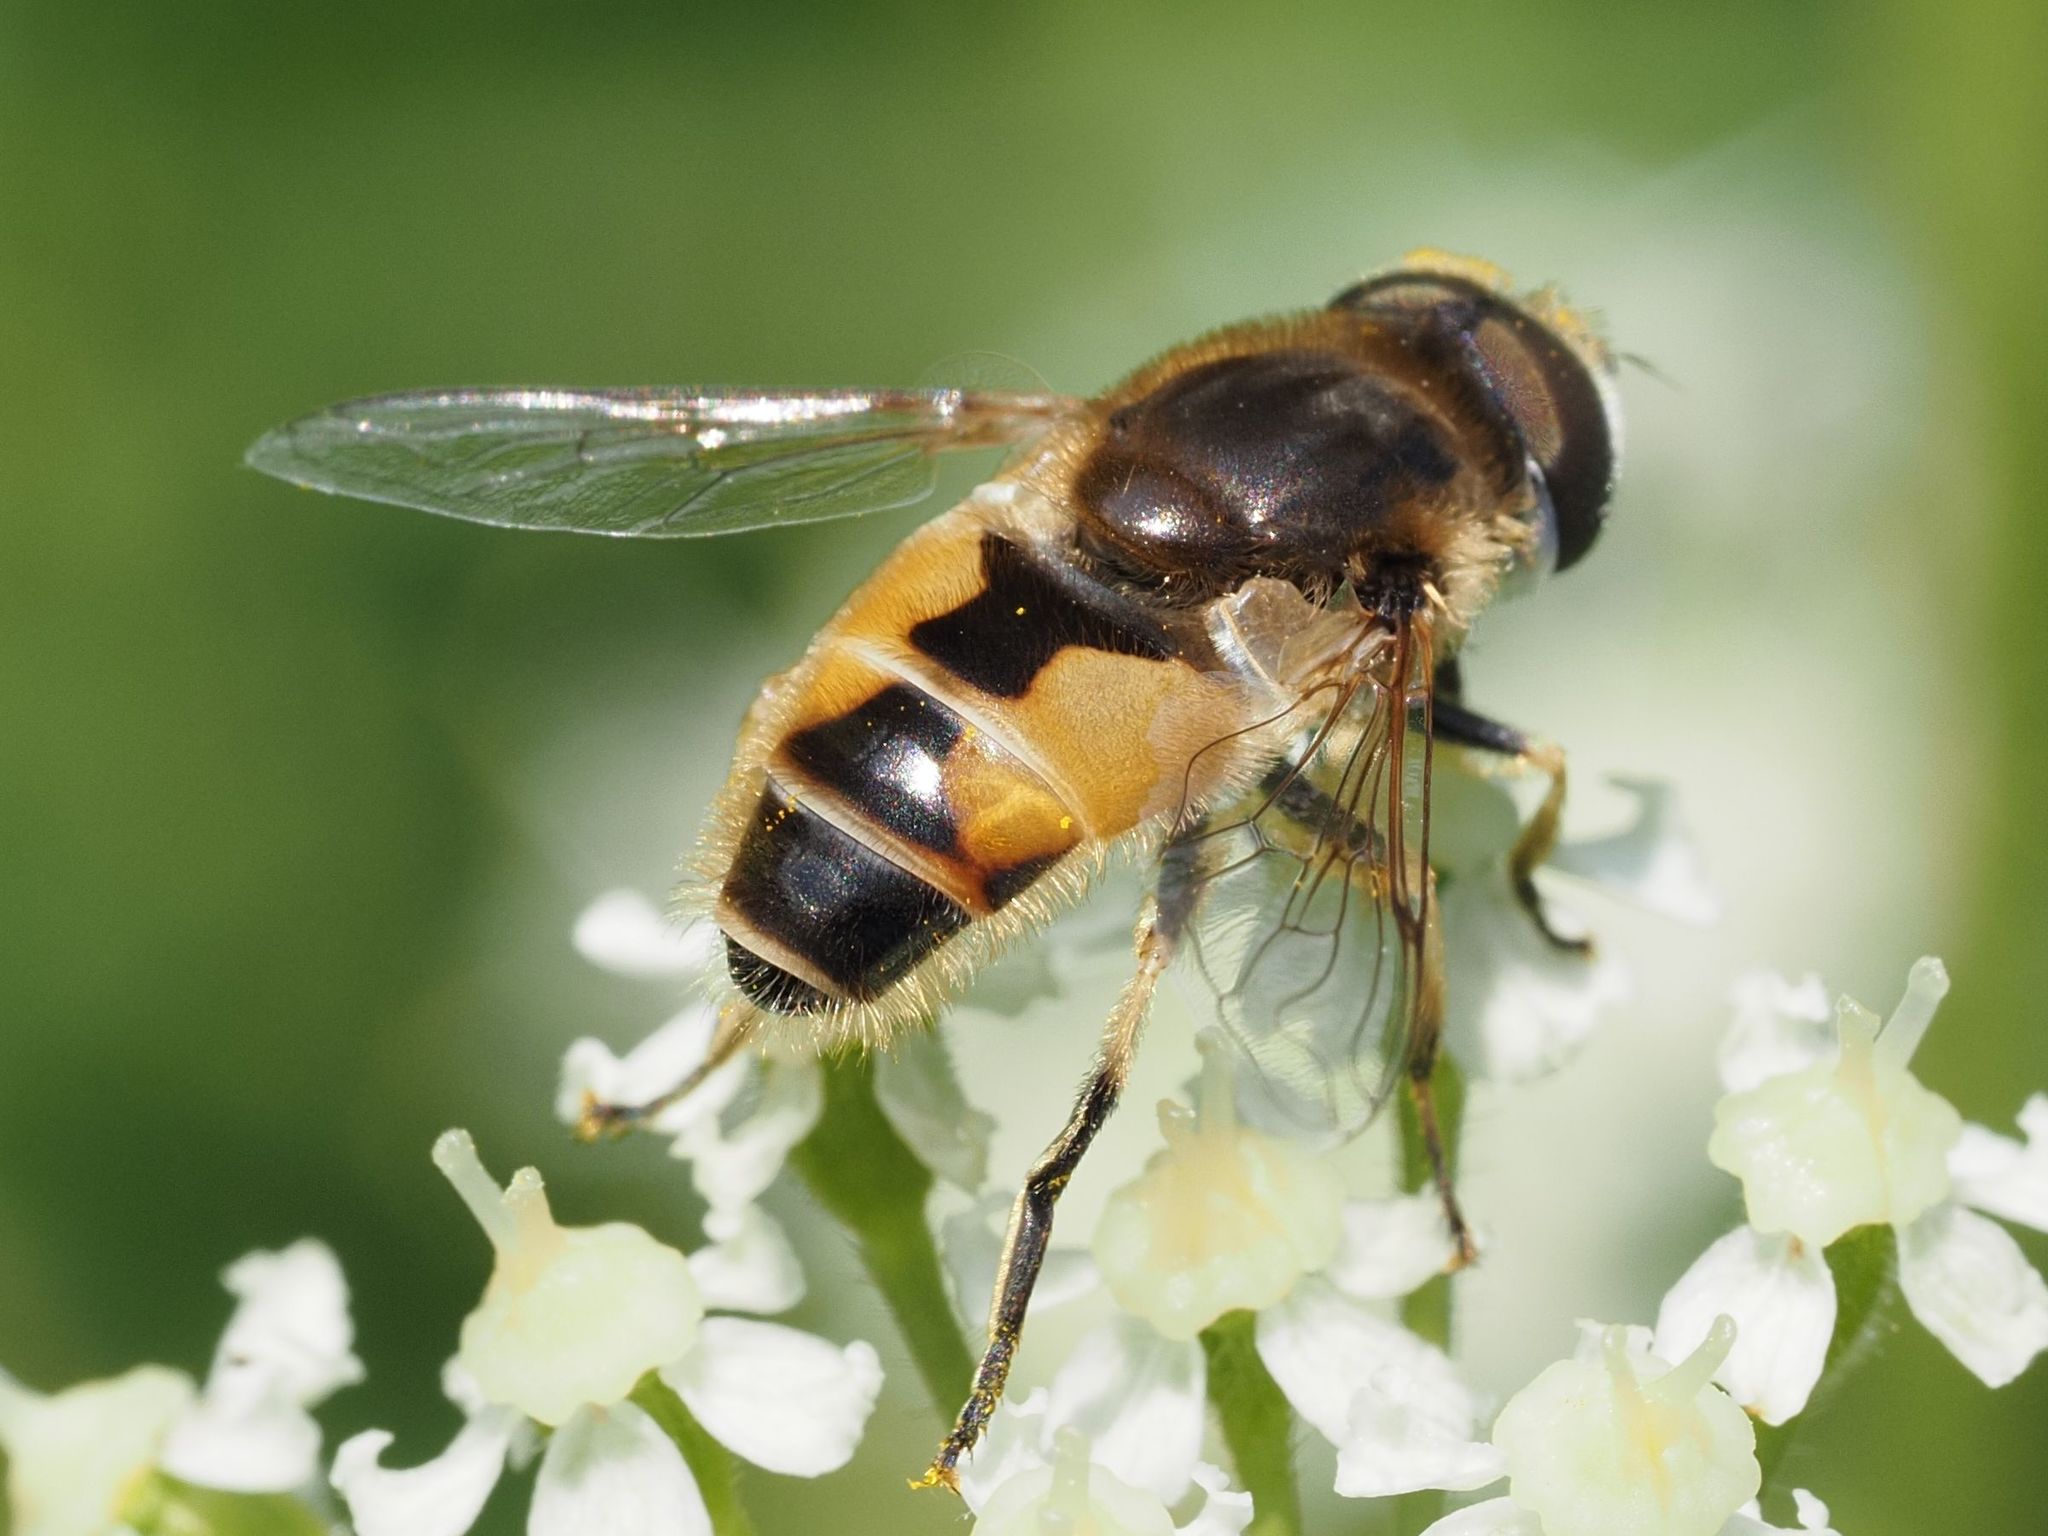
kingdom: Animalia
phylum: Arthropoda
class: Insecta
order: Diptera
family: Syrphidae
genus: Eristalis
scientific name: Eristalis arbustorum
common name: Hover fly
